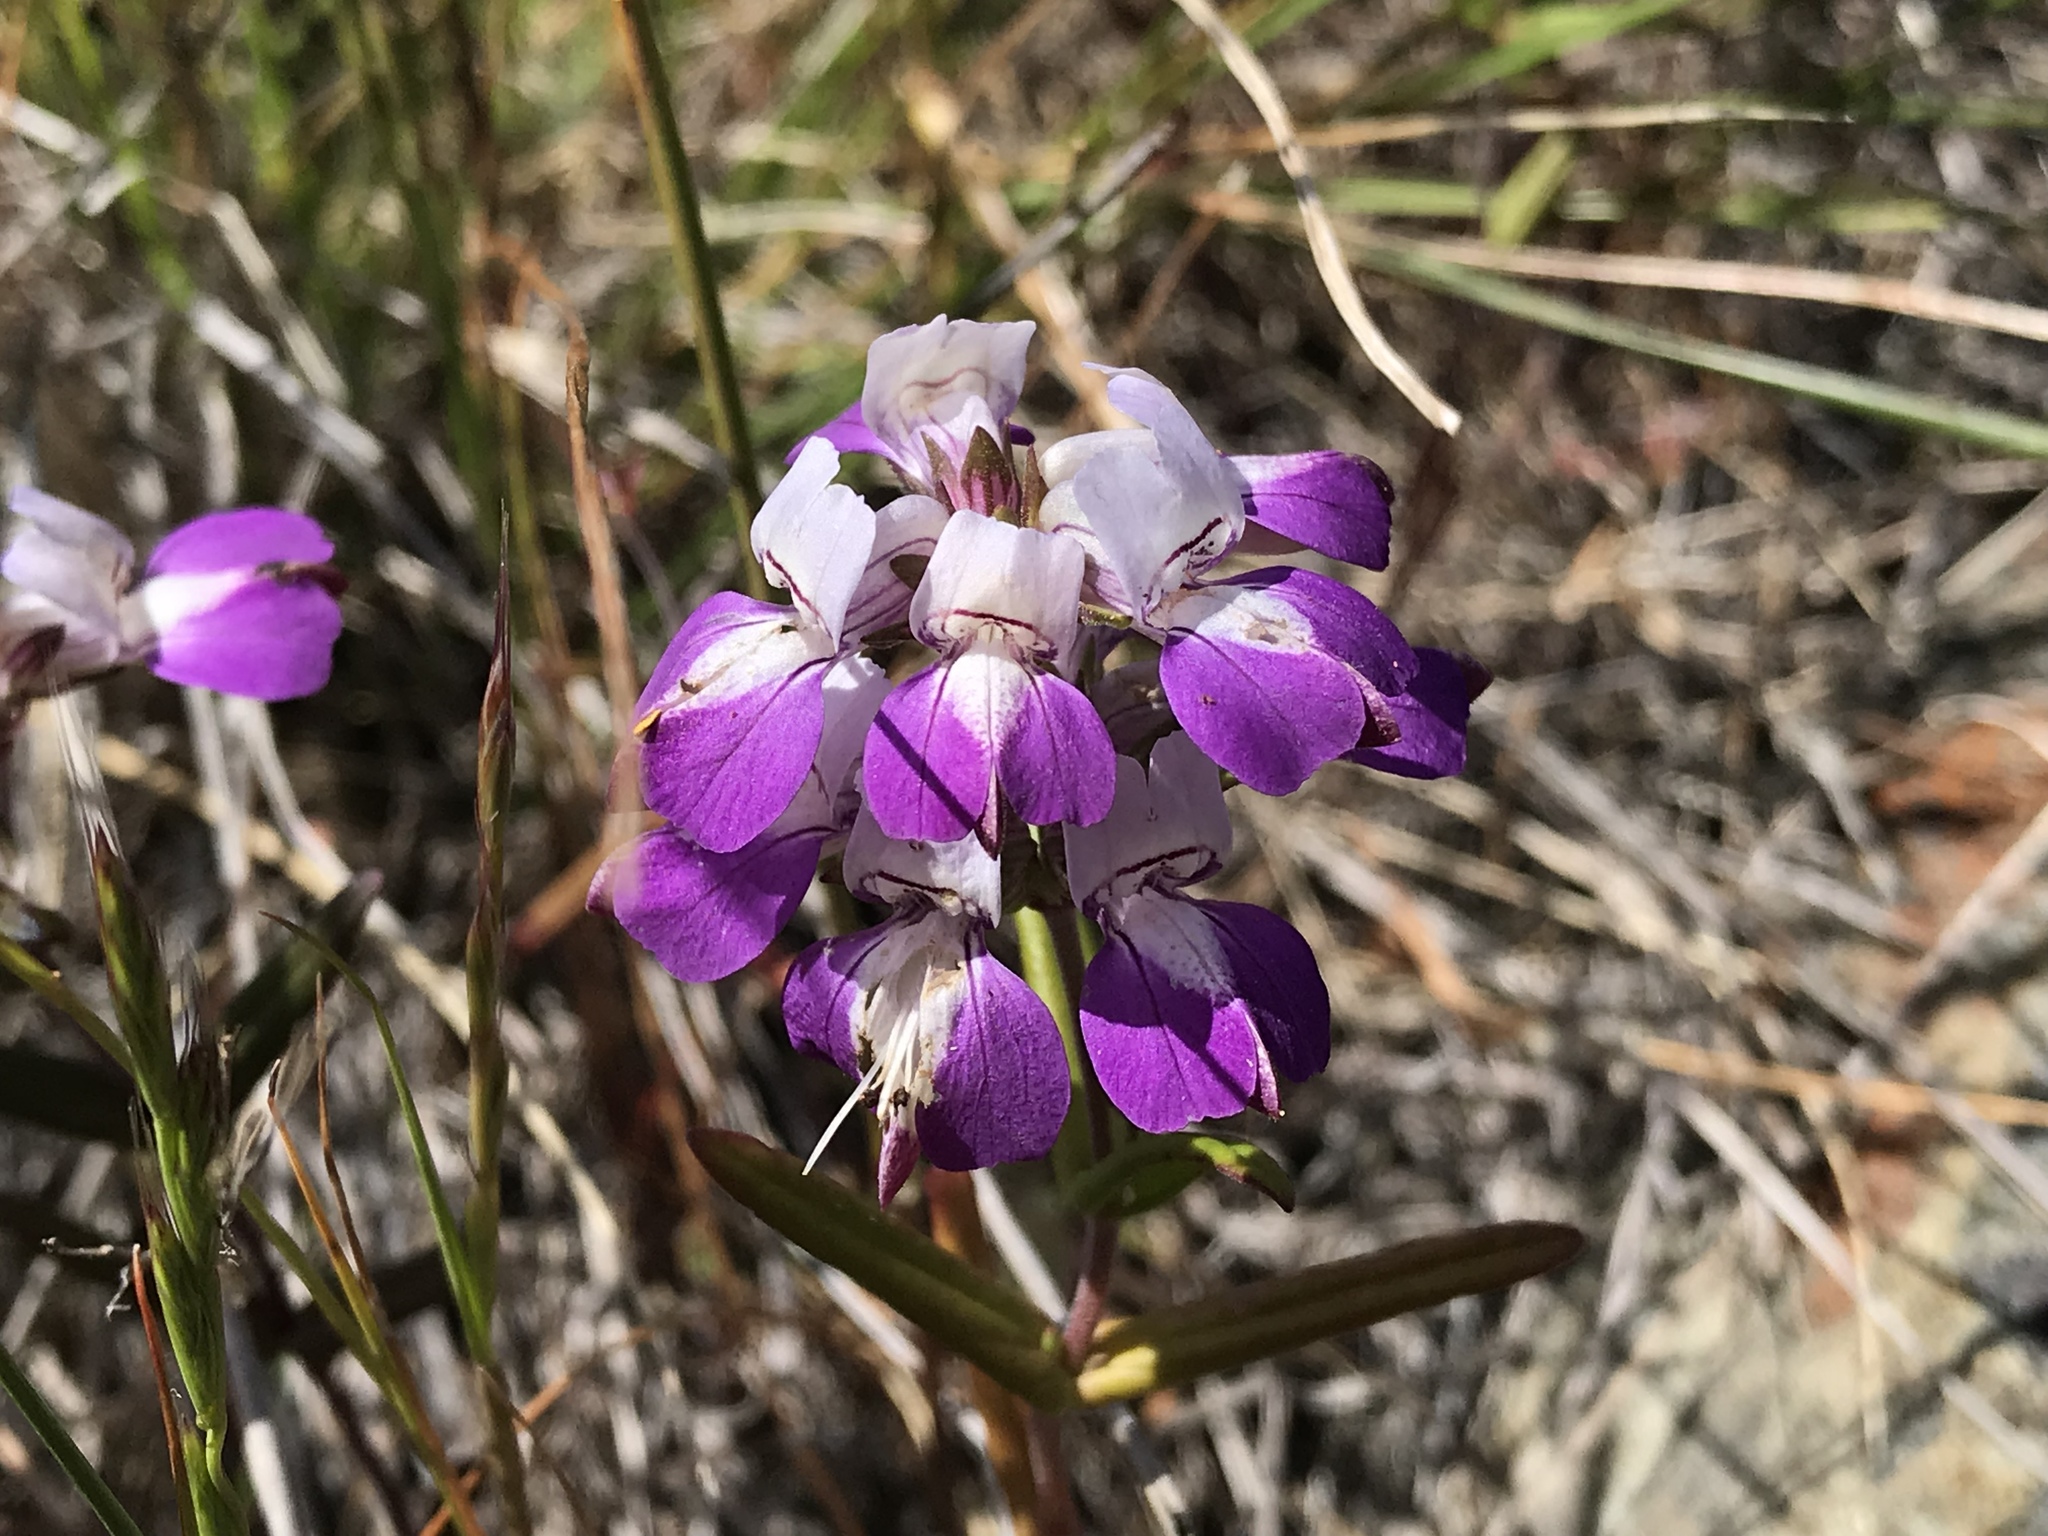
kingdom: Plantae
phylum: Tracheophyta
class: Magnoliopsida
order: Lamiales
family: Plantaginaceae
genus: Collinsia
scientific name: Collinsia heterophylla
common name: Chinese-houses
